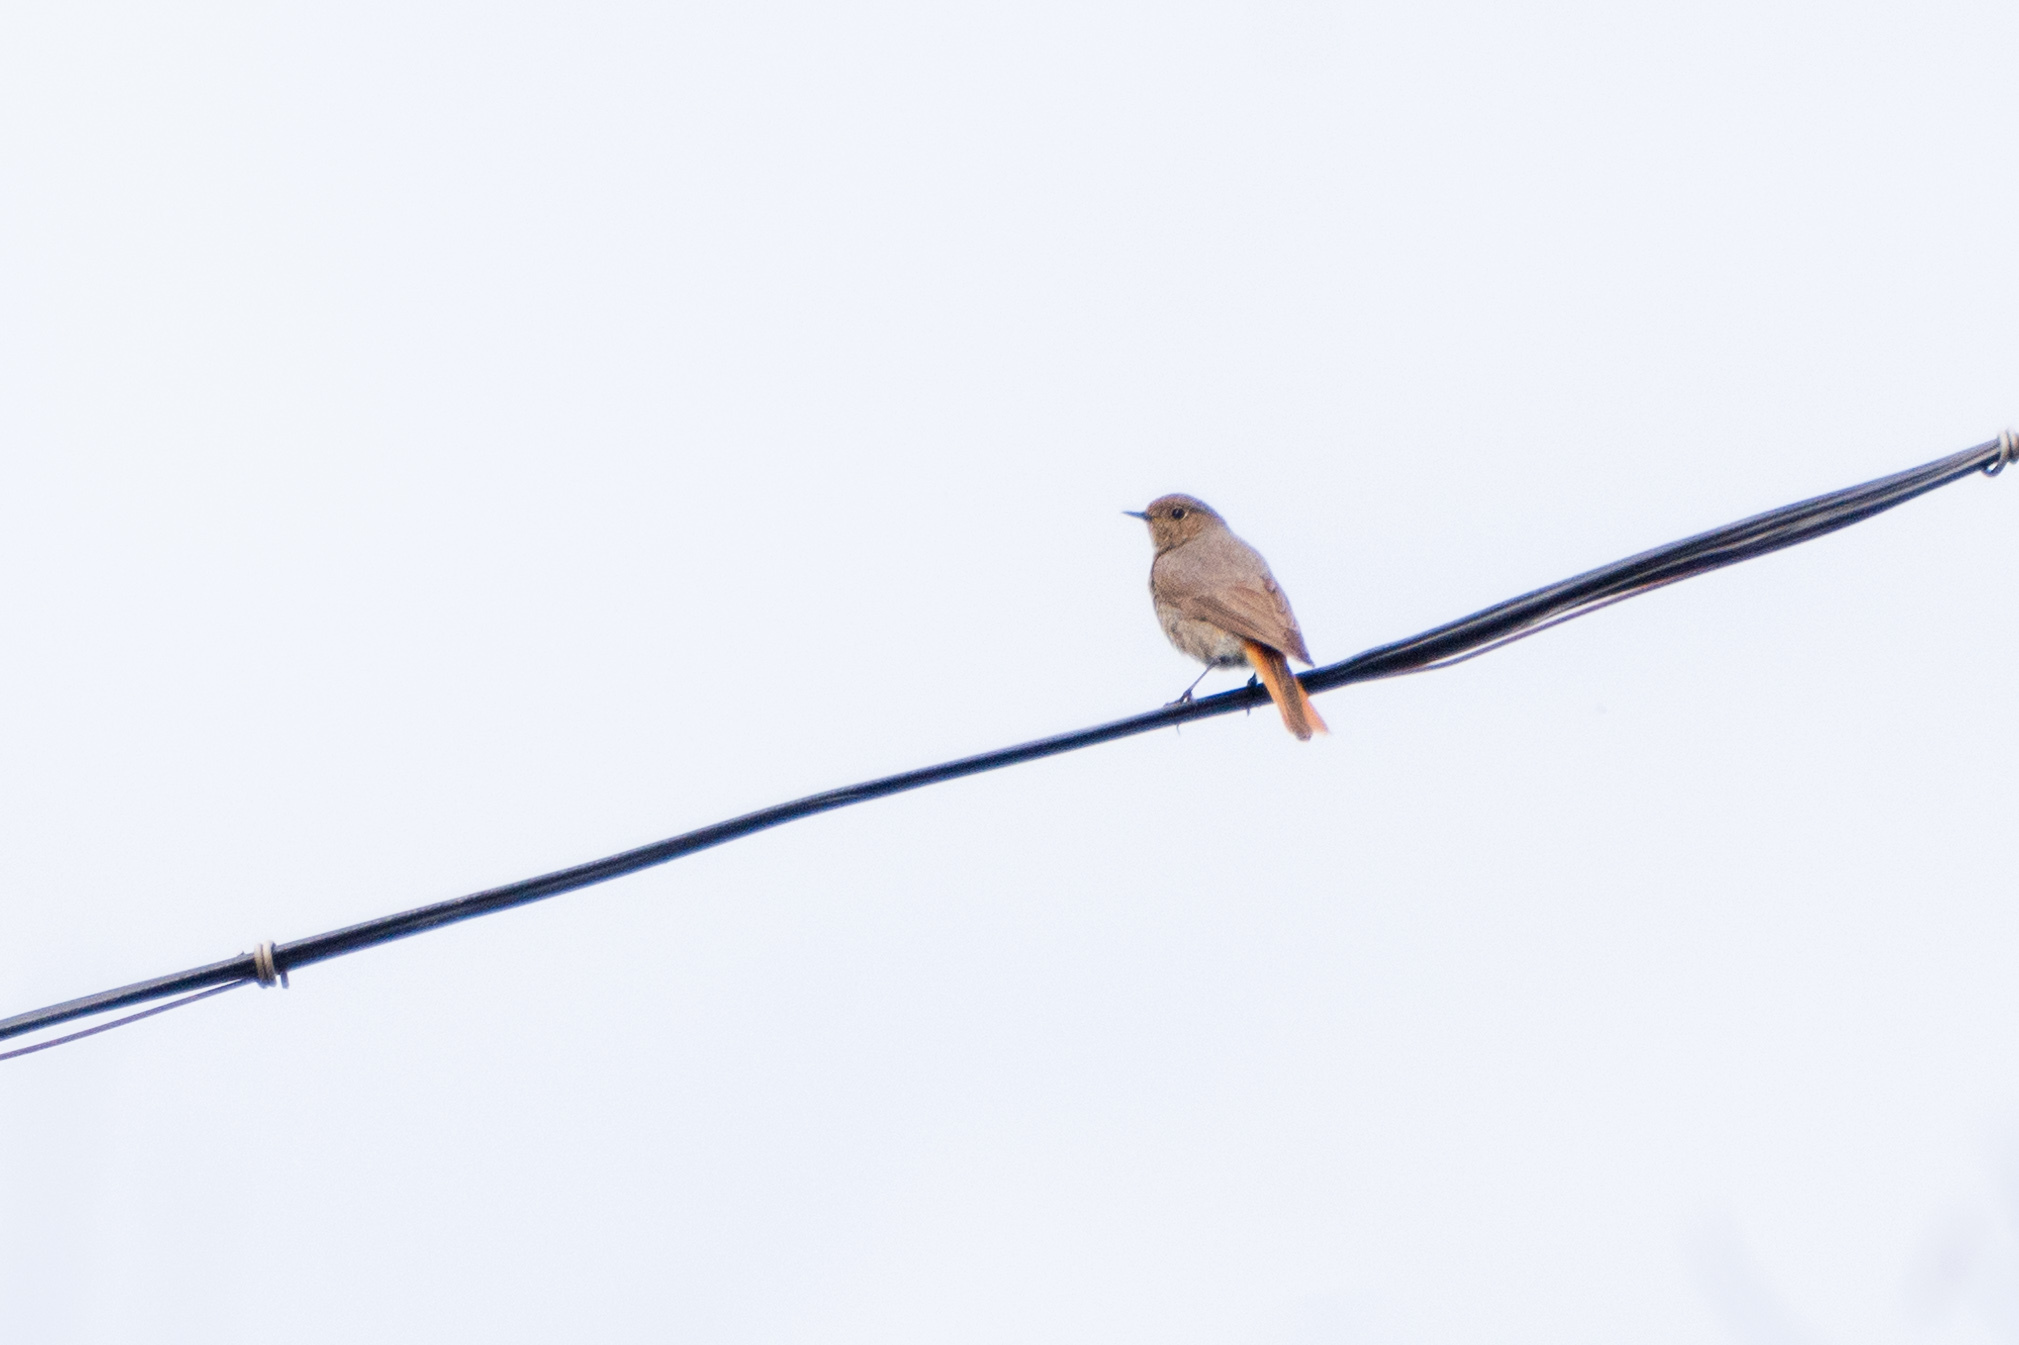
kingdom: Animalia
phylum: Chordata
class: Aves
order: Passeriformes
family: Muscicapidae
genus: Phoenicurus
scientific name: Phoenicurus ochruros
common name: Black redstart
